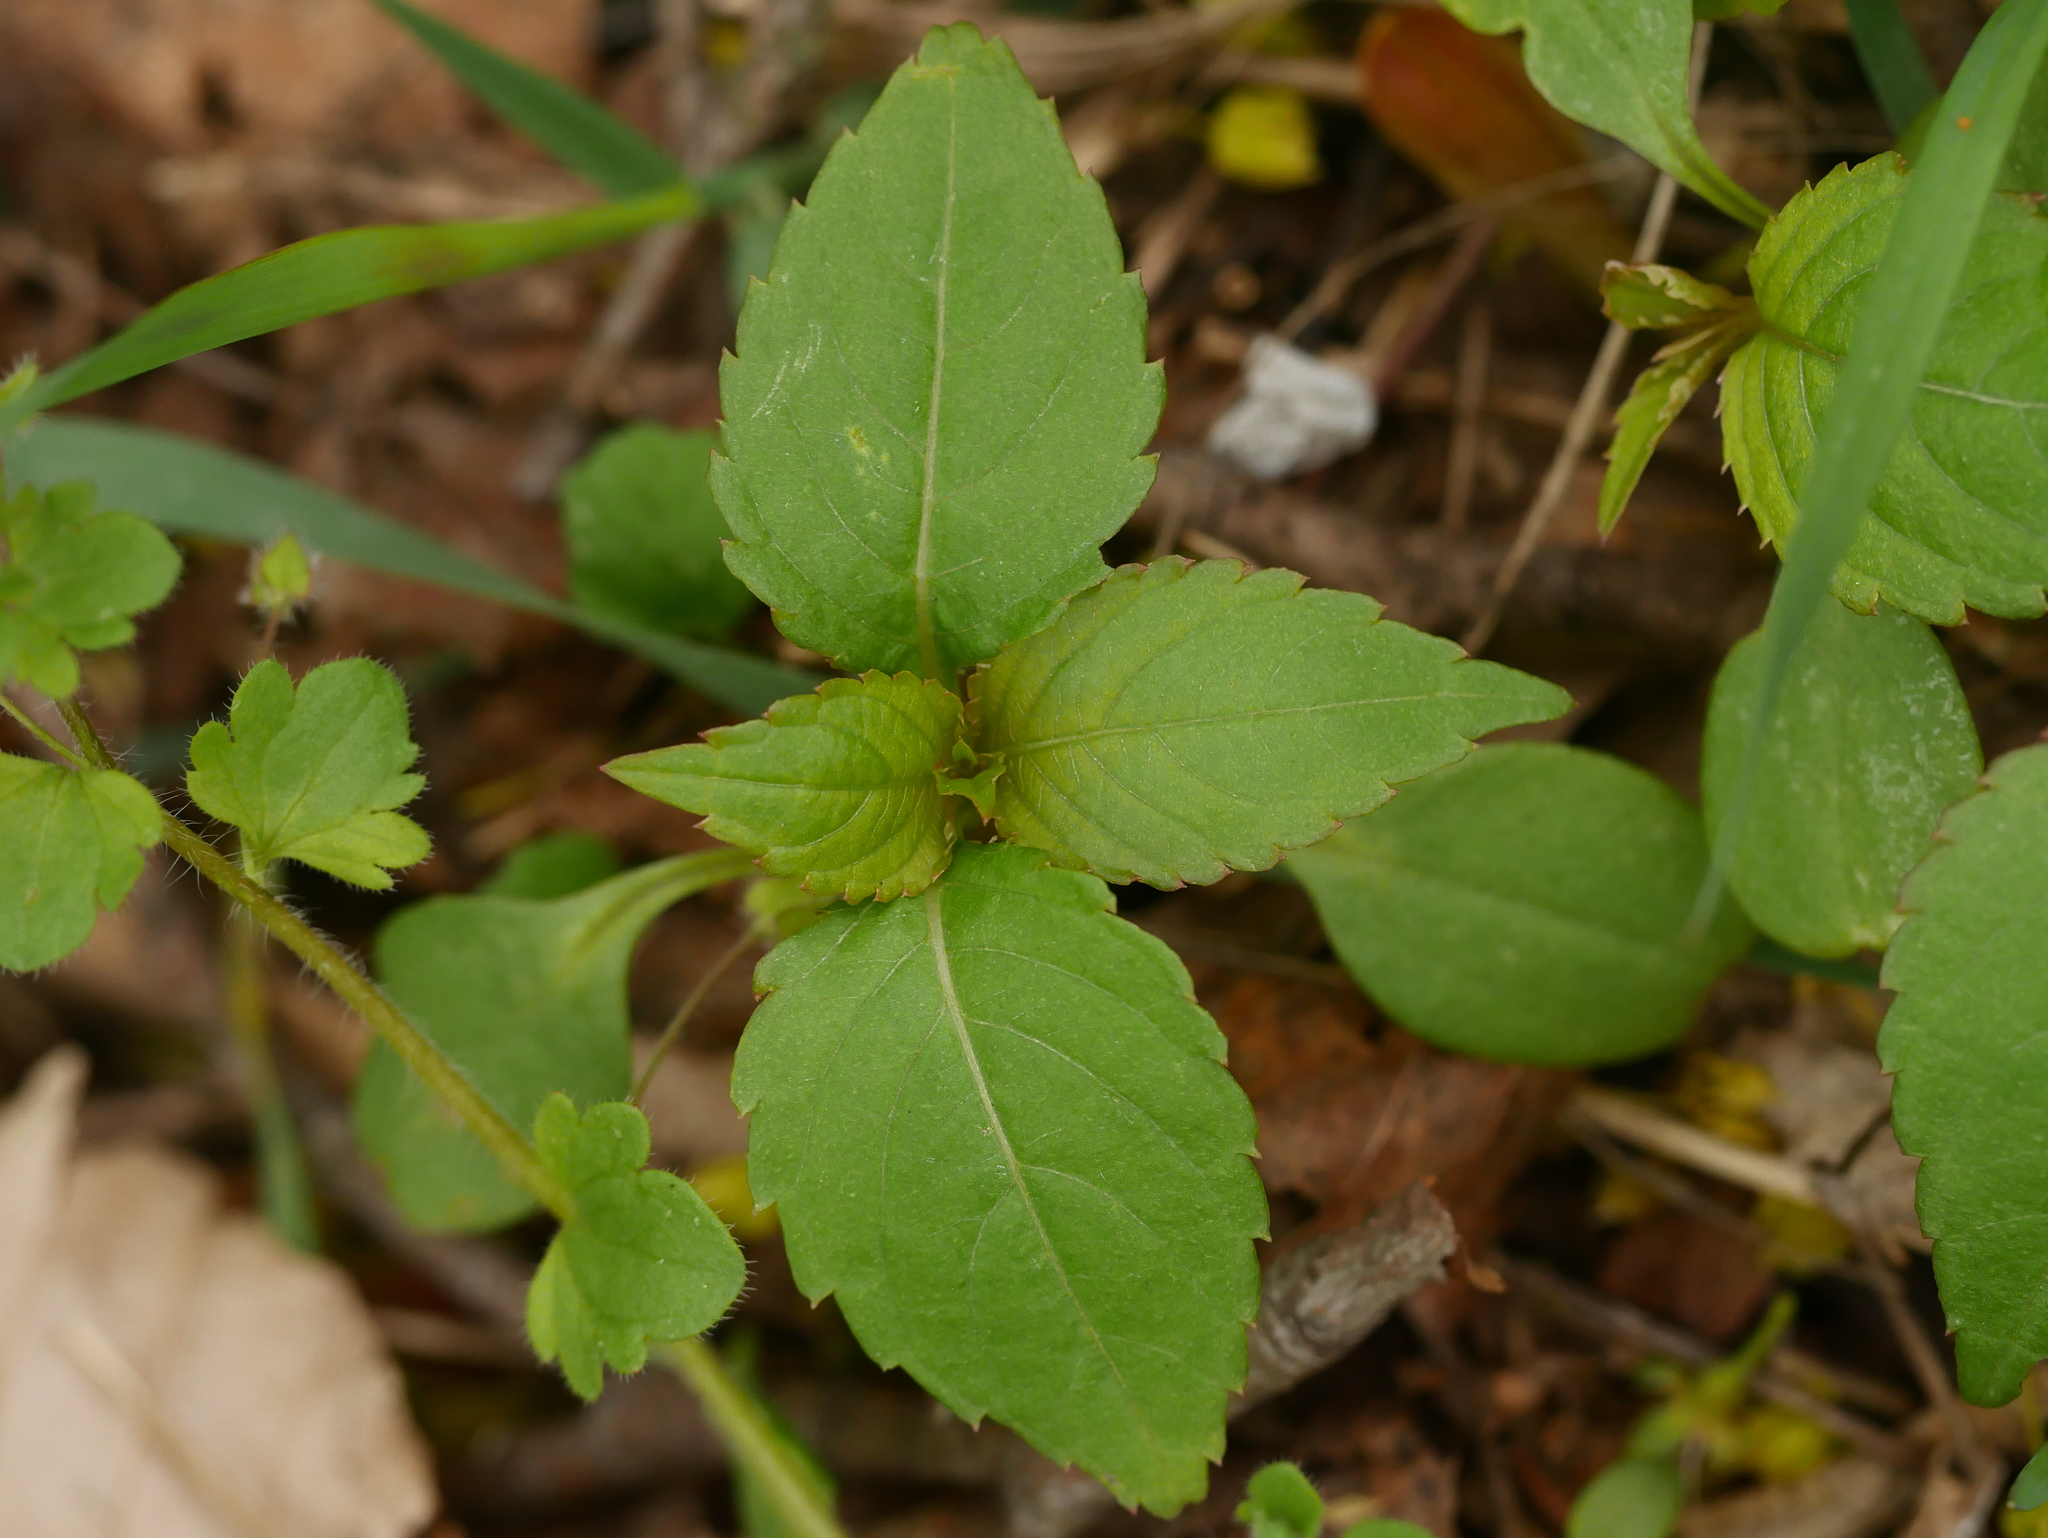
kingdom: Plantae
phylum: Tracheophyta
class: Magnoliopsida
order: Ericales
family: Balsaminaceae
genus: Impatiens
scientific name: Impatiens parviflora
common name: Small balsam
